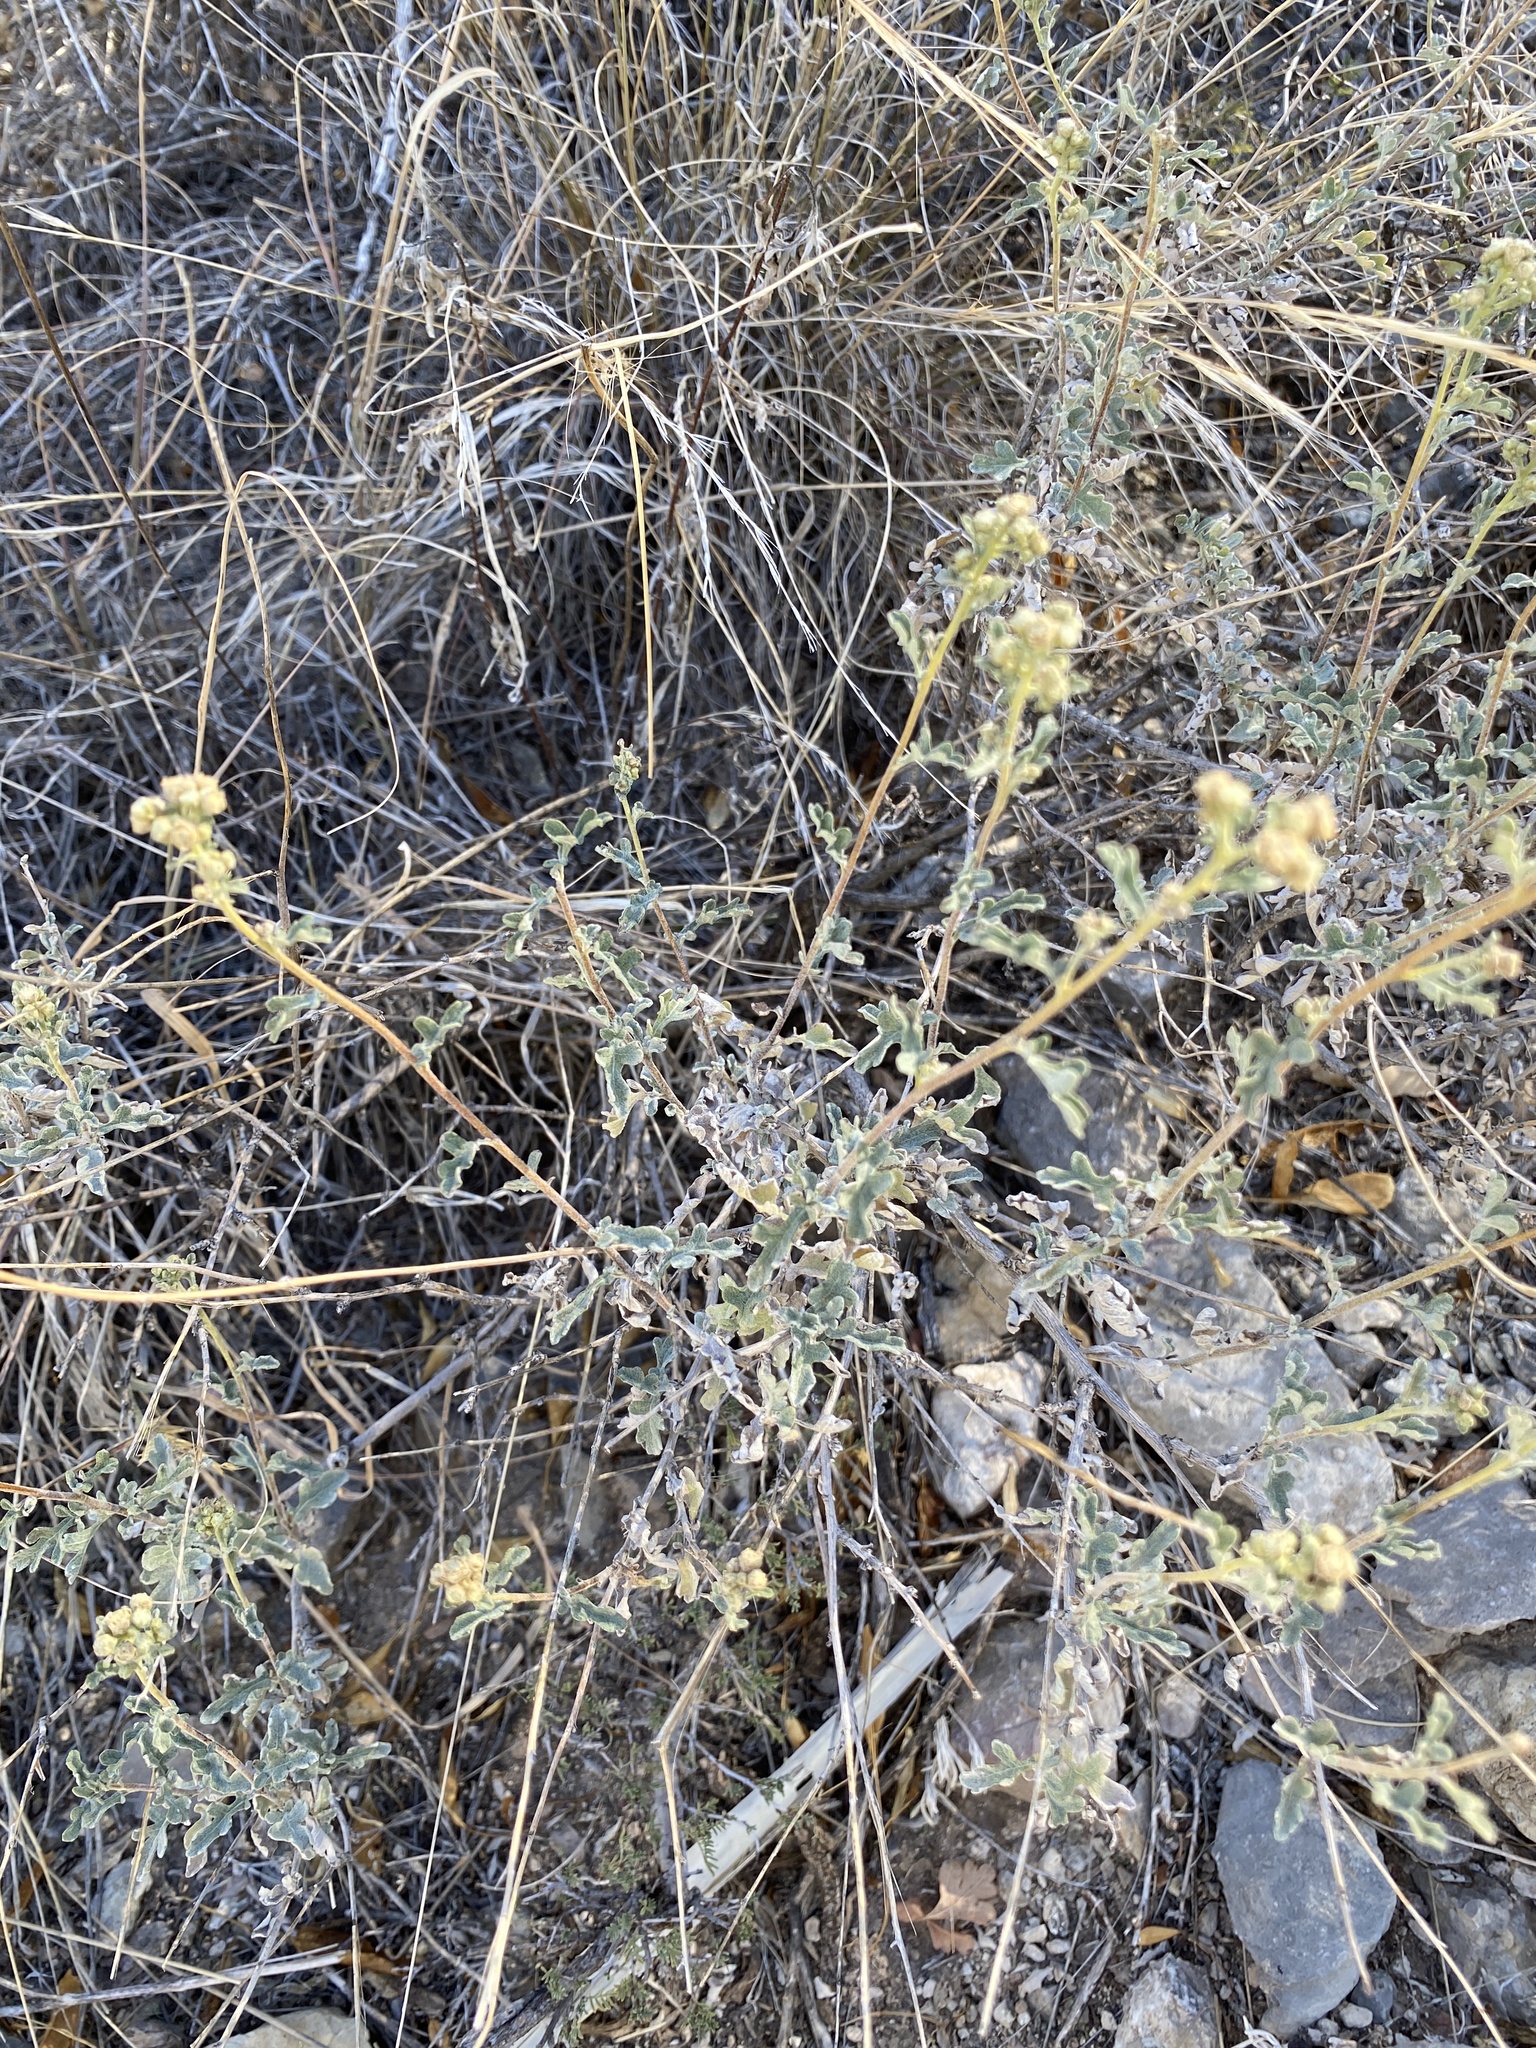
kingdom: Plantae
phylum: Tracheophyta
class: Magnoliopsida
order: Asterales
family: Asteraceae
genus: Parthenium
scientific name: Parthenium incanum
